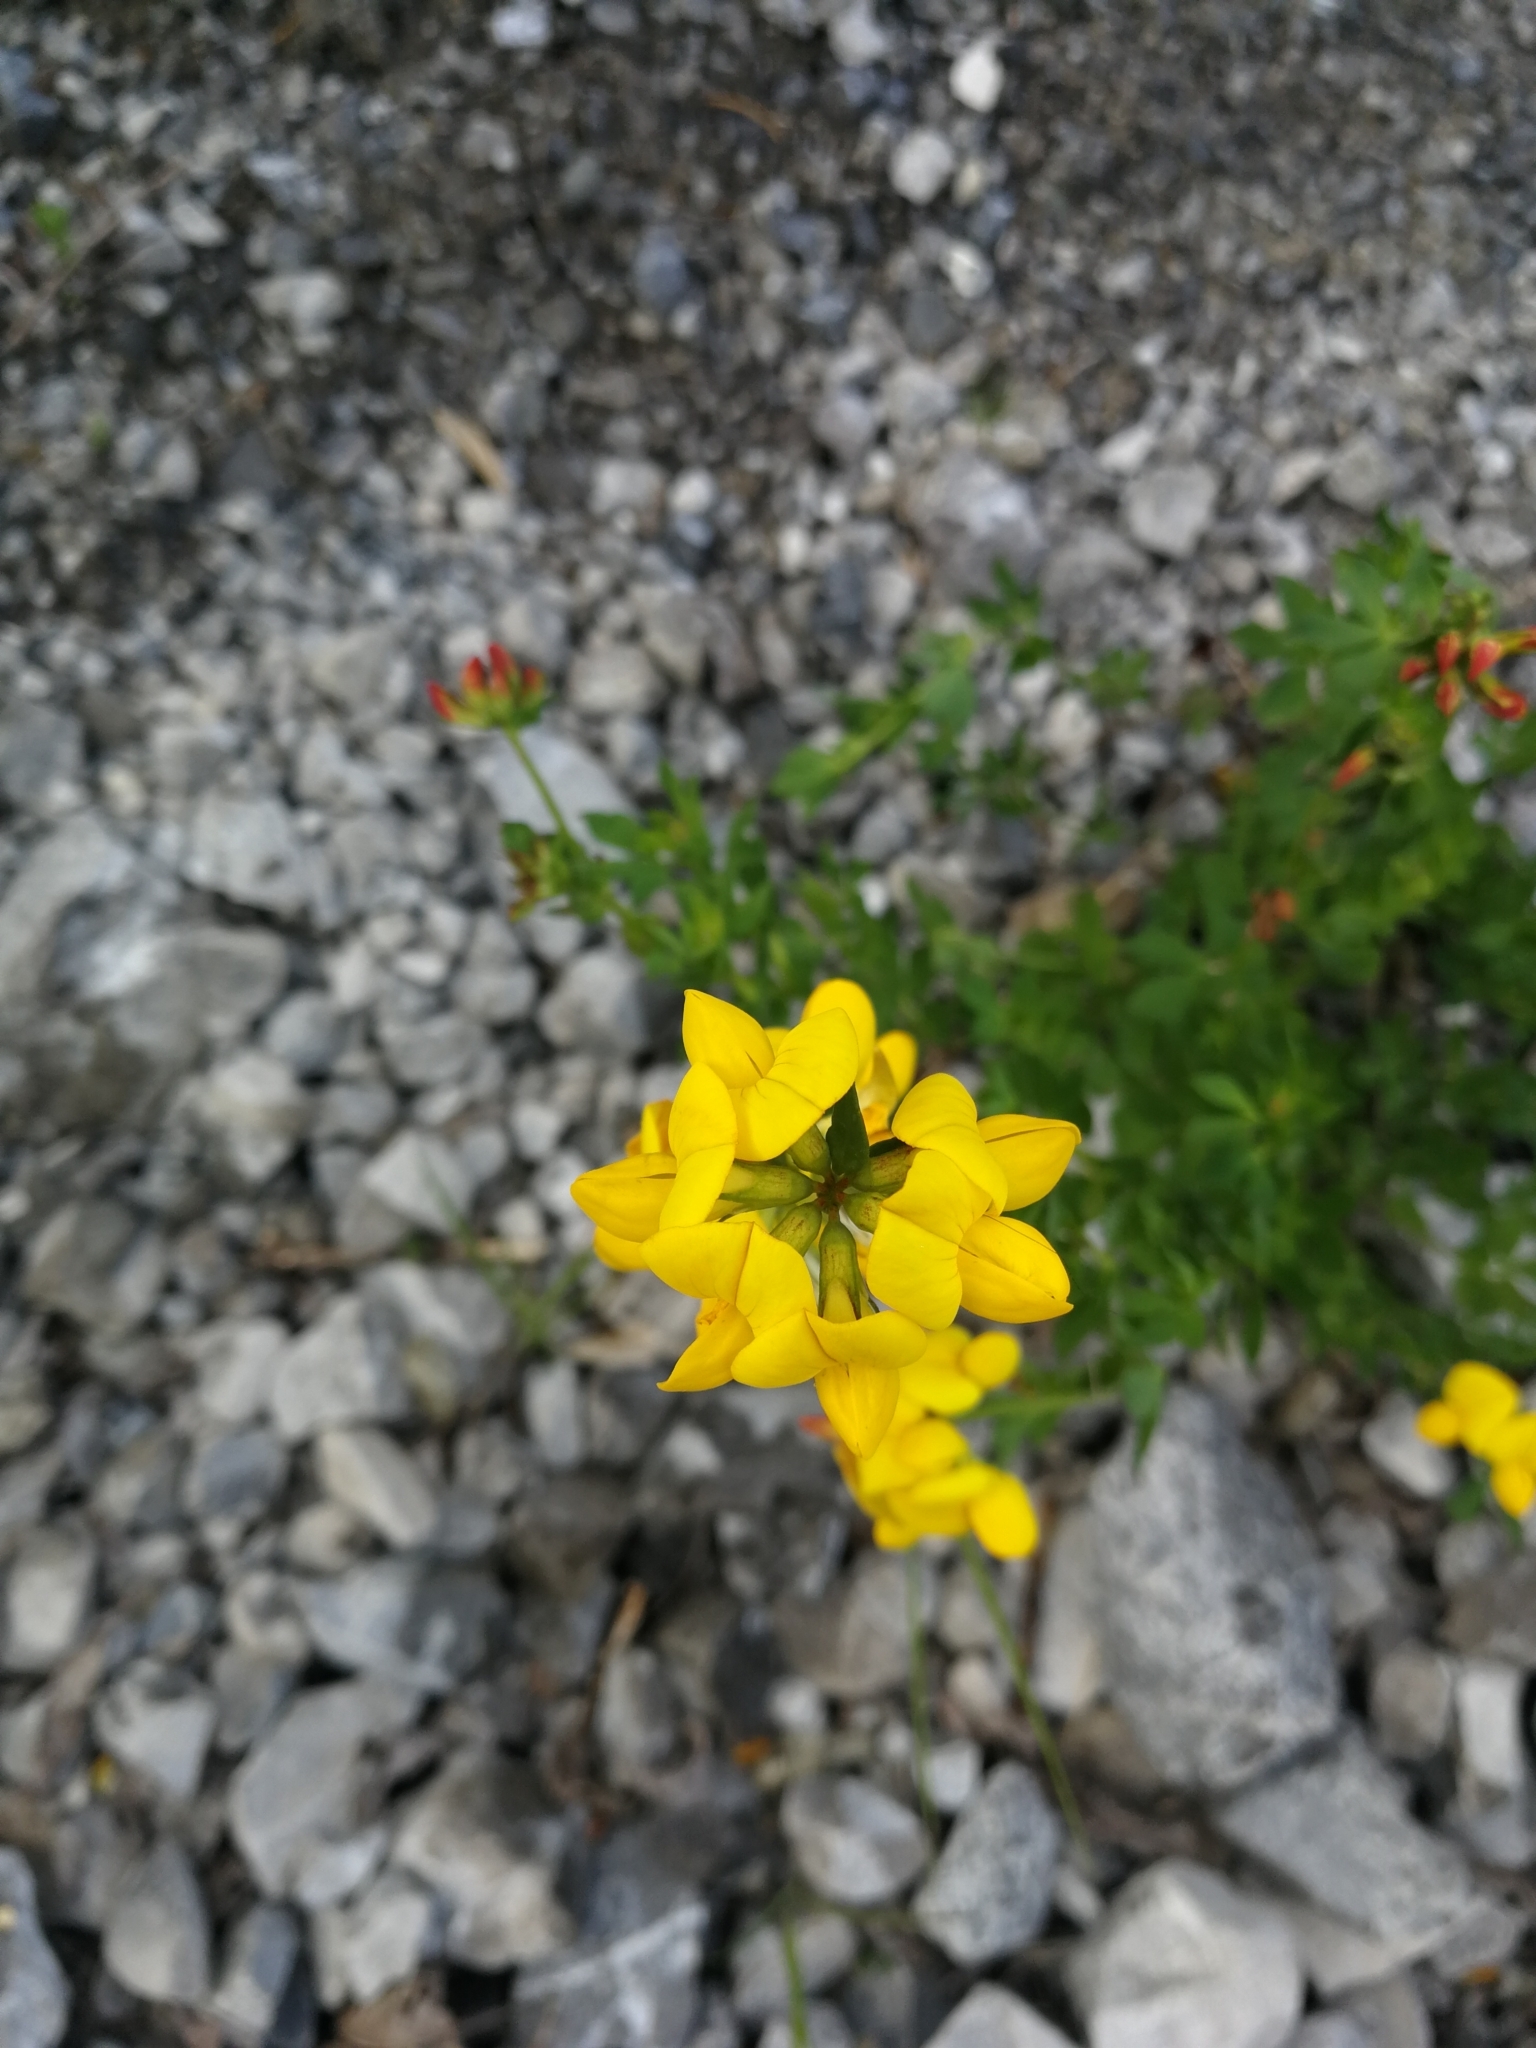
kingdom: Plantae
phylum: Tracheophyta
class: Magnoliopsida
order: Fabales
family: Fabaceae
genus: Lotus
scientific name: Lotus corniculatus
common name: Common bird's-foot-trefoil
